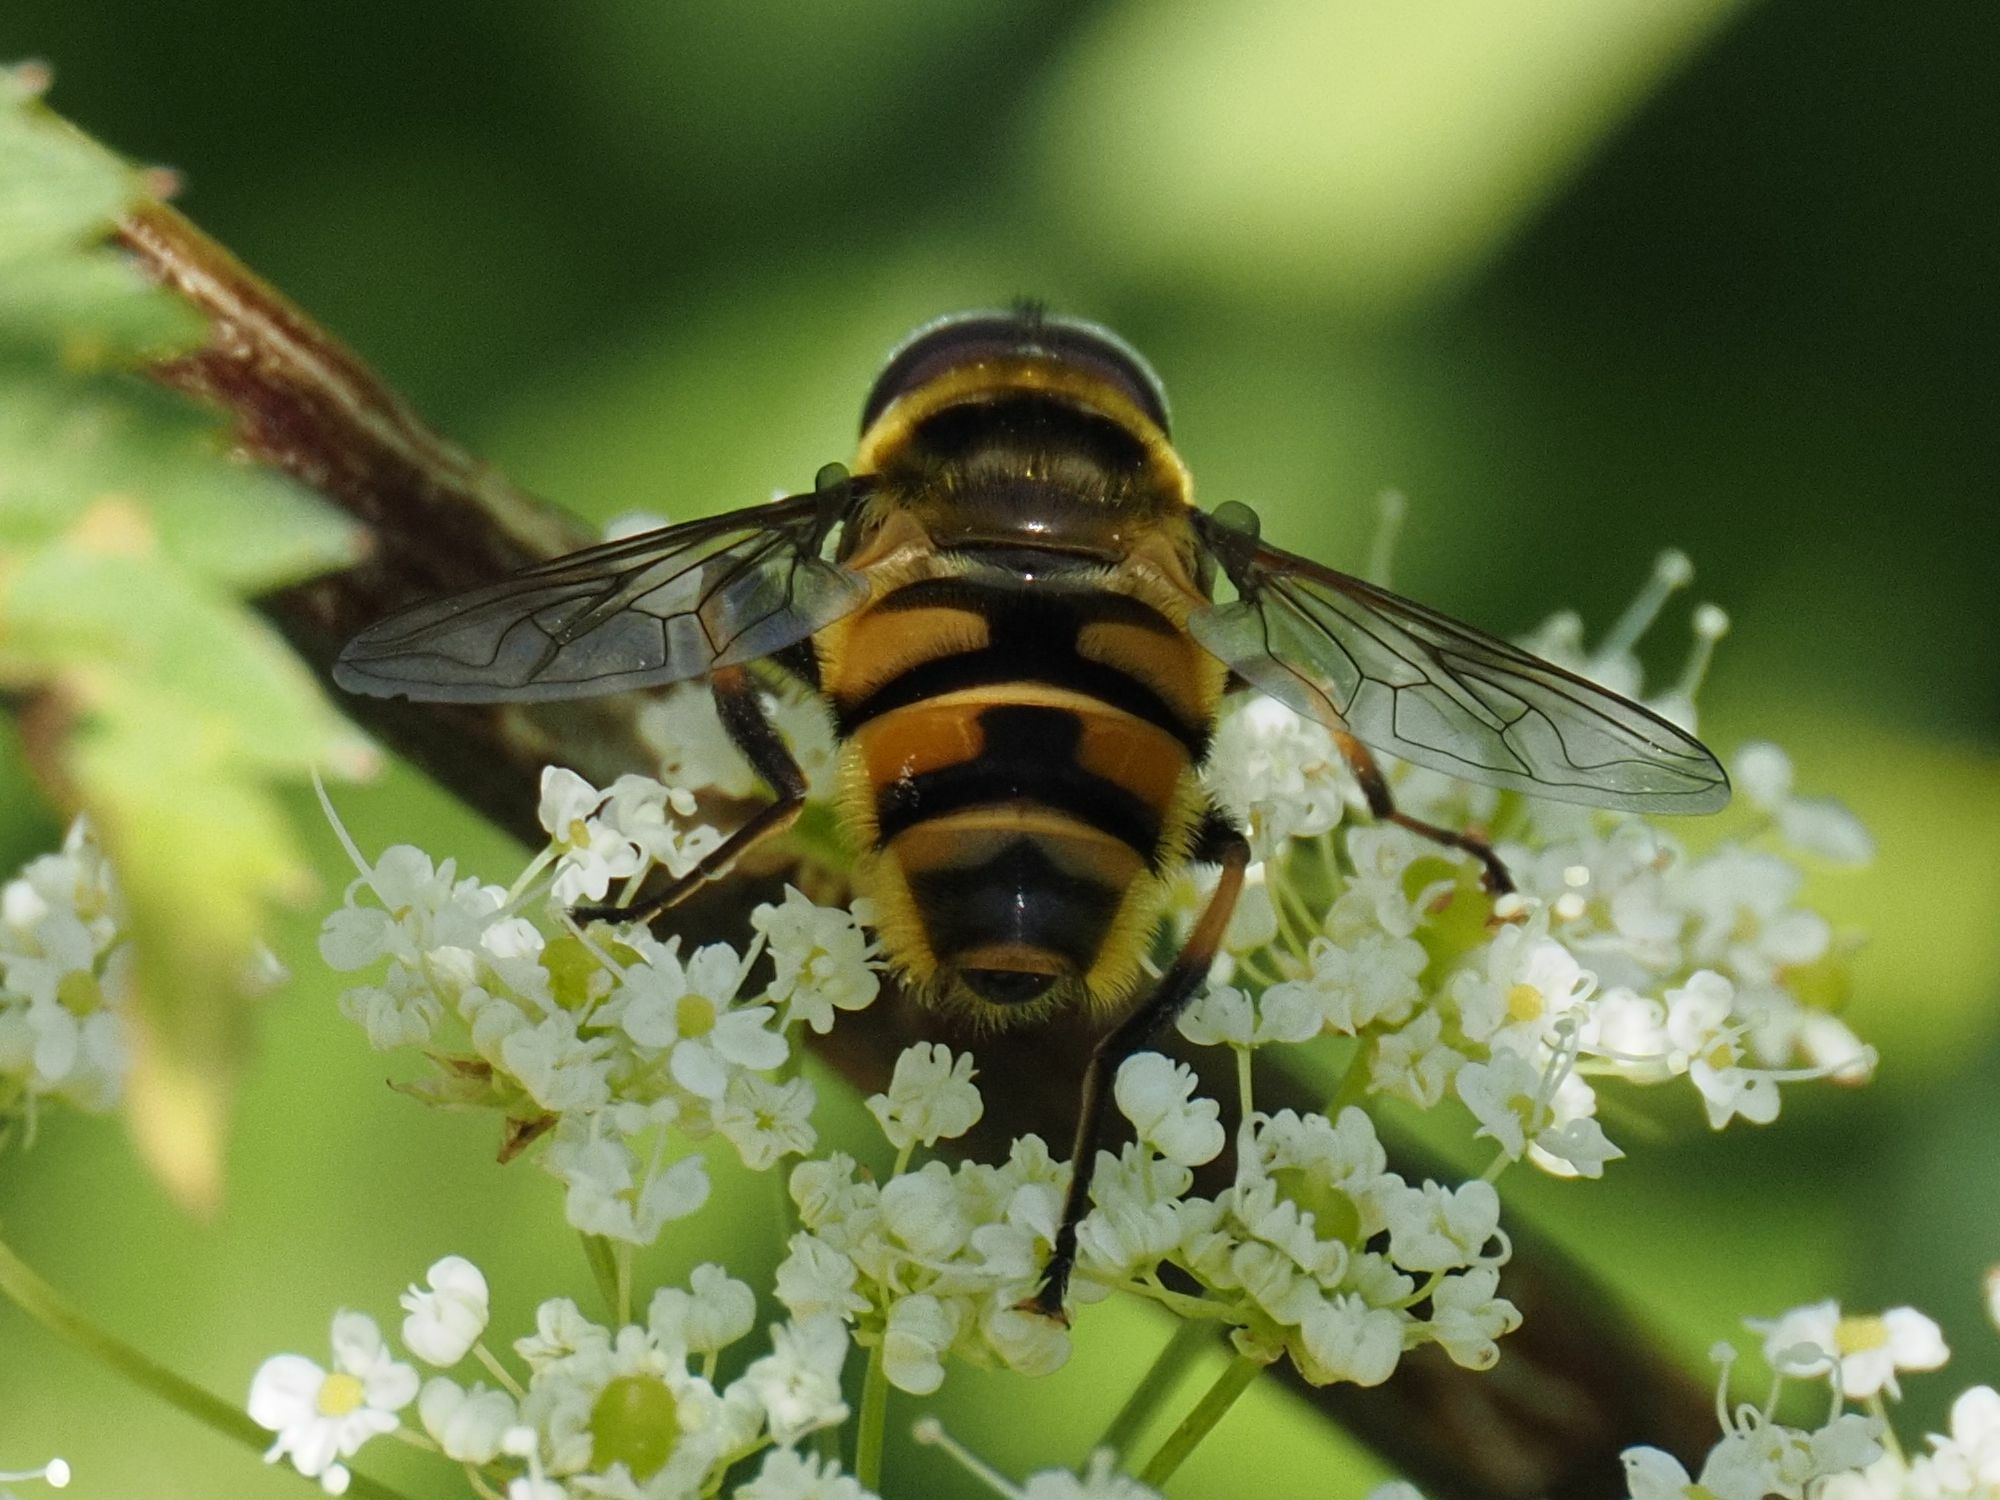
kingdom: Animalia
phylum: Arthropoda
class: Insecta
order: Diptera
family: Syrphidae
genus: Myathropa
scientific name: Myathropa florea
